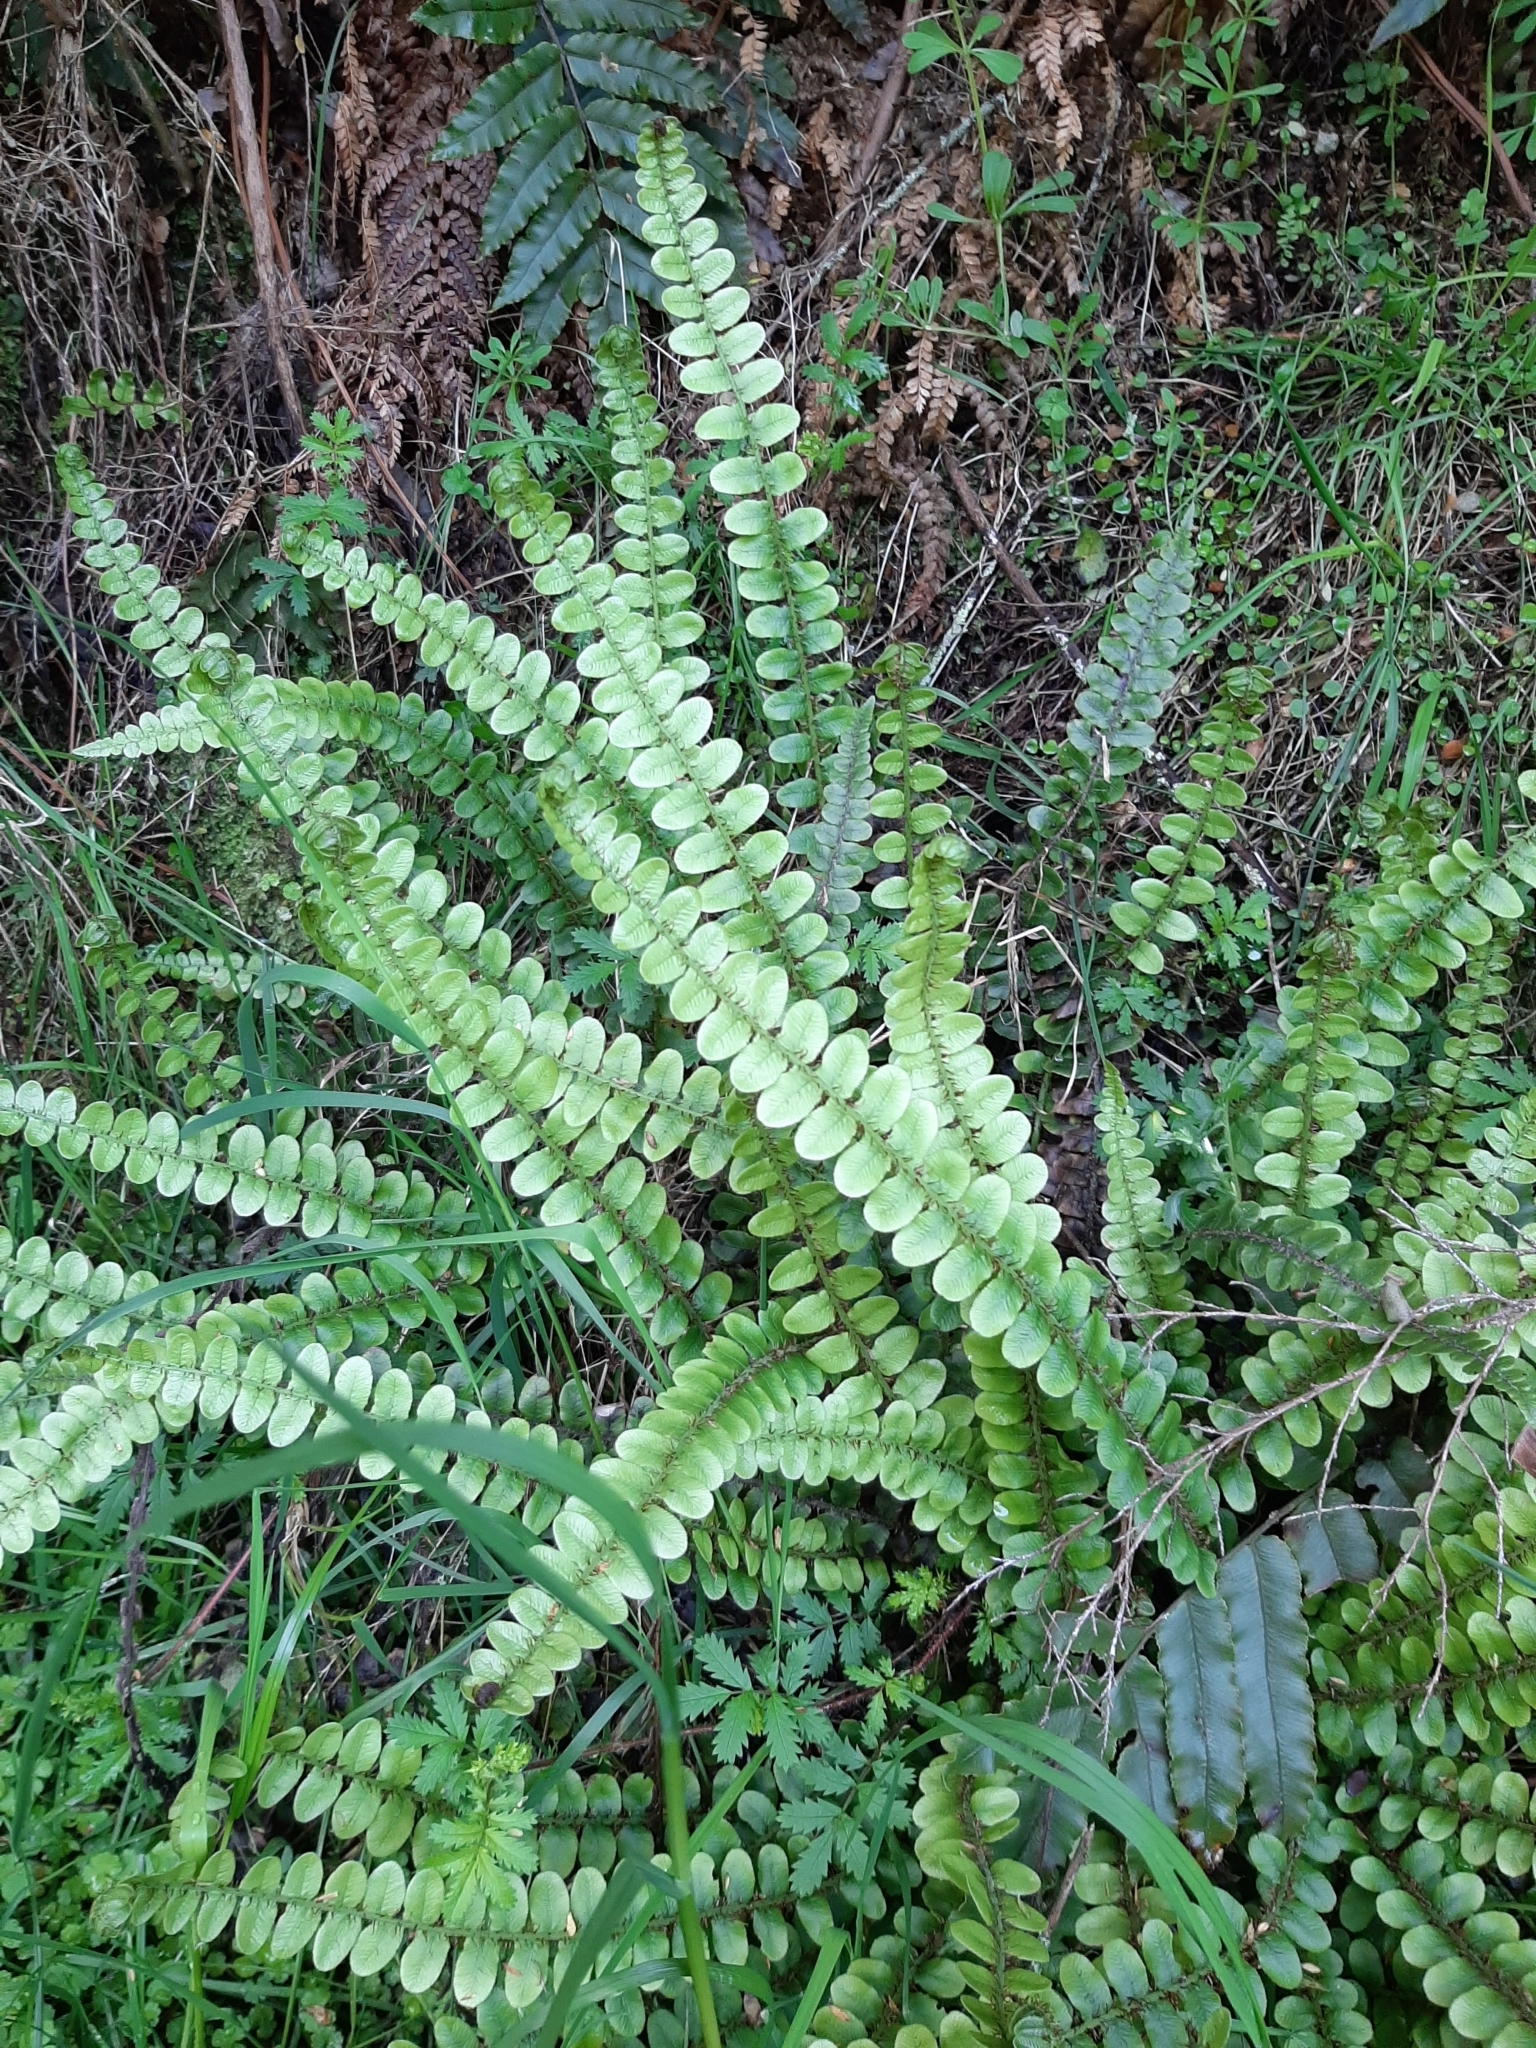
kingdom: Plantae
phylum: Tracheophyta
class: Polypodiopsida
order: Polypodiales
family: Blechnaceae
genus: Cranfillia
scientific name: Cranfillia fluviatilis
